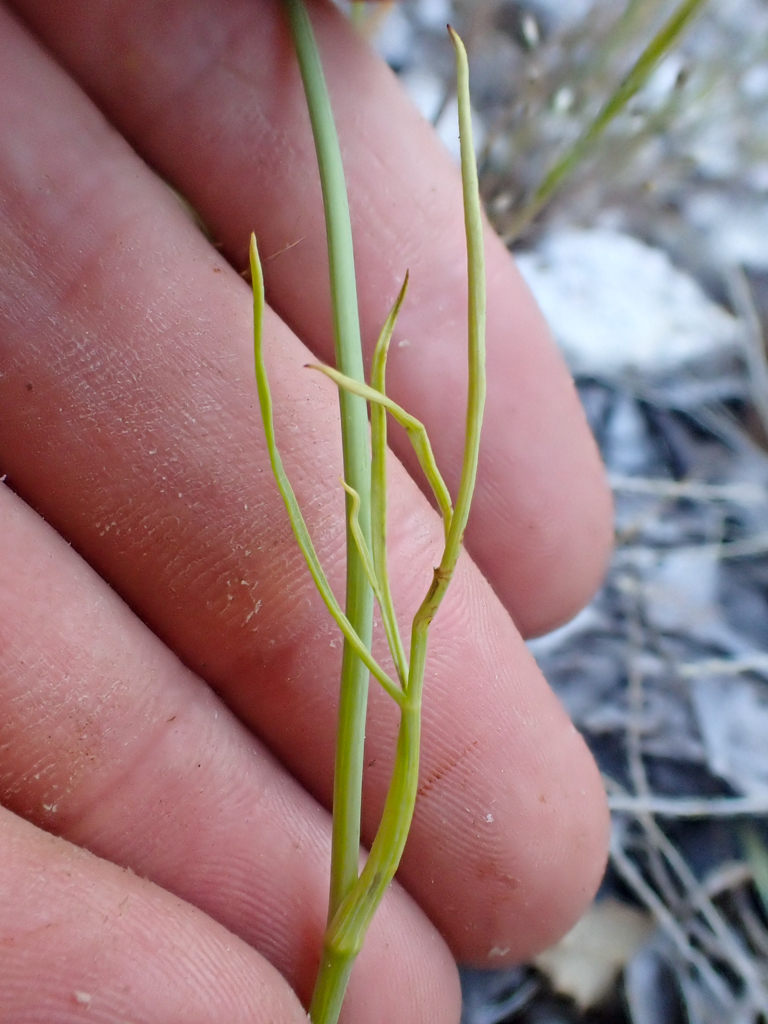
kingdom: Plantae
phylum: Tracheophyta
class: Magnoliopsida
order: Apiales
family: Apiaceae
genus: Perideridia
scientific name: Perideridia kelloggii
